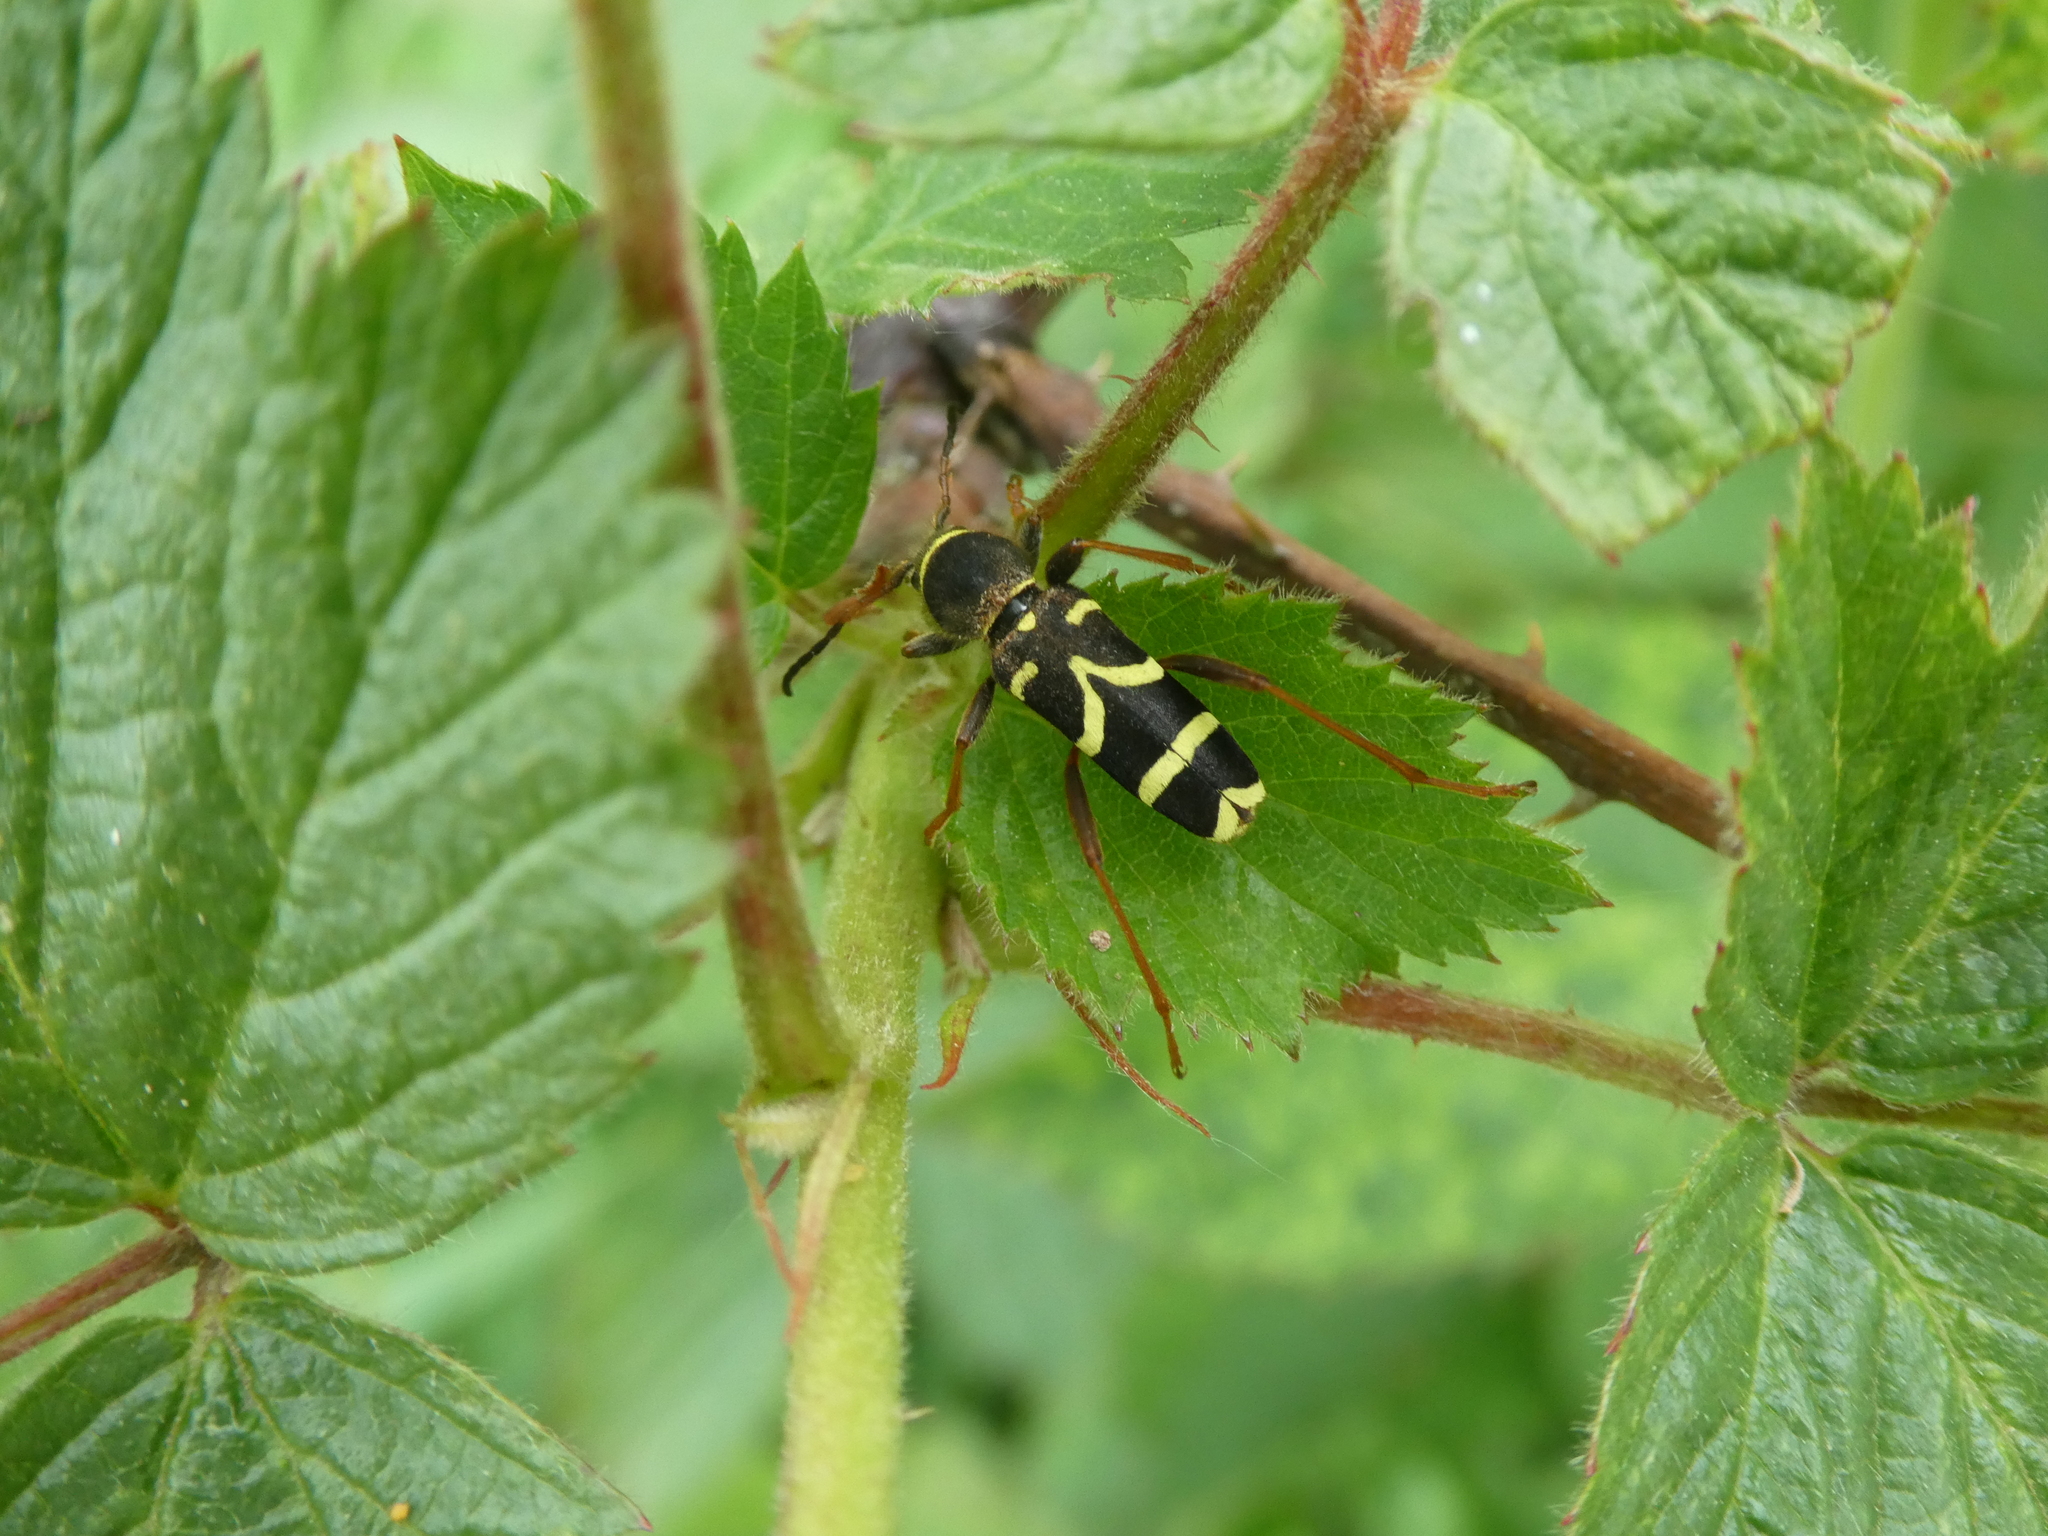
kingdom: Animalia
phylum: Arthropoda
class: Insecta
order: Coleoptera
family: Cerambycidae
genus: Clytus
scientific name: Clytus arietis
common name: Wasp beetle
